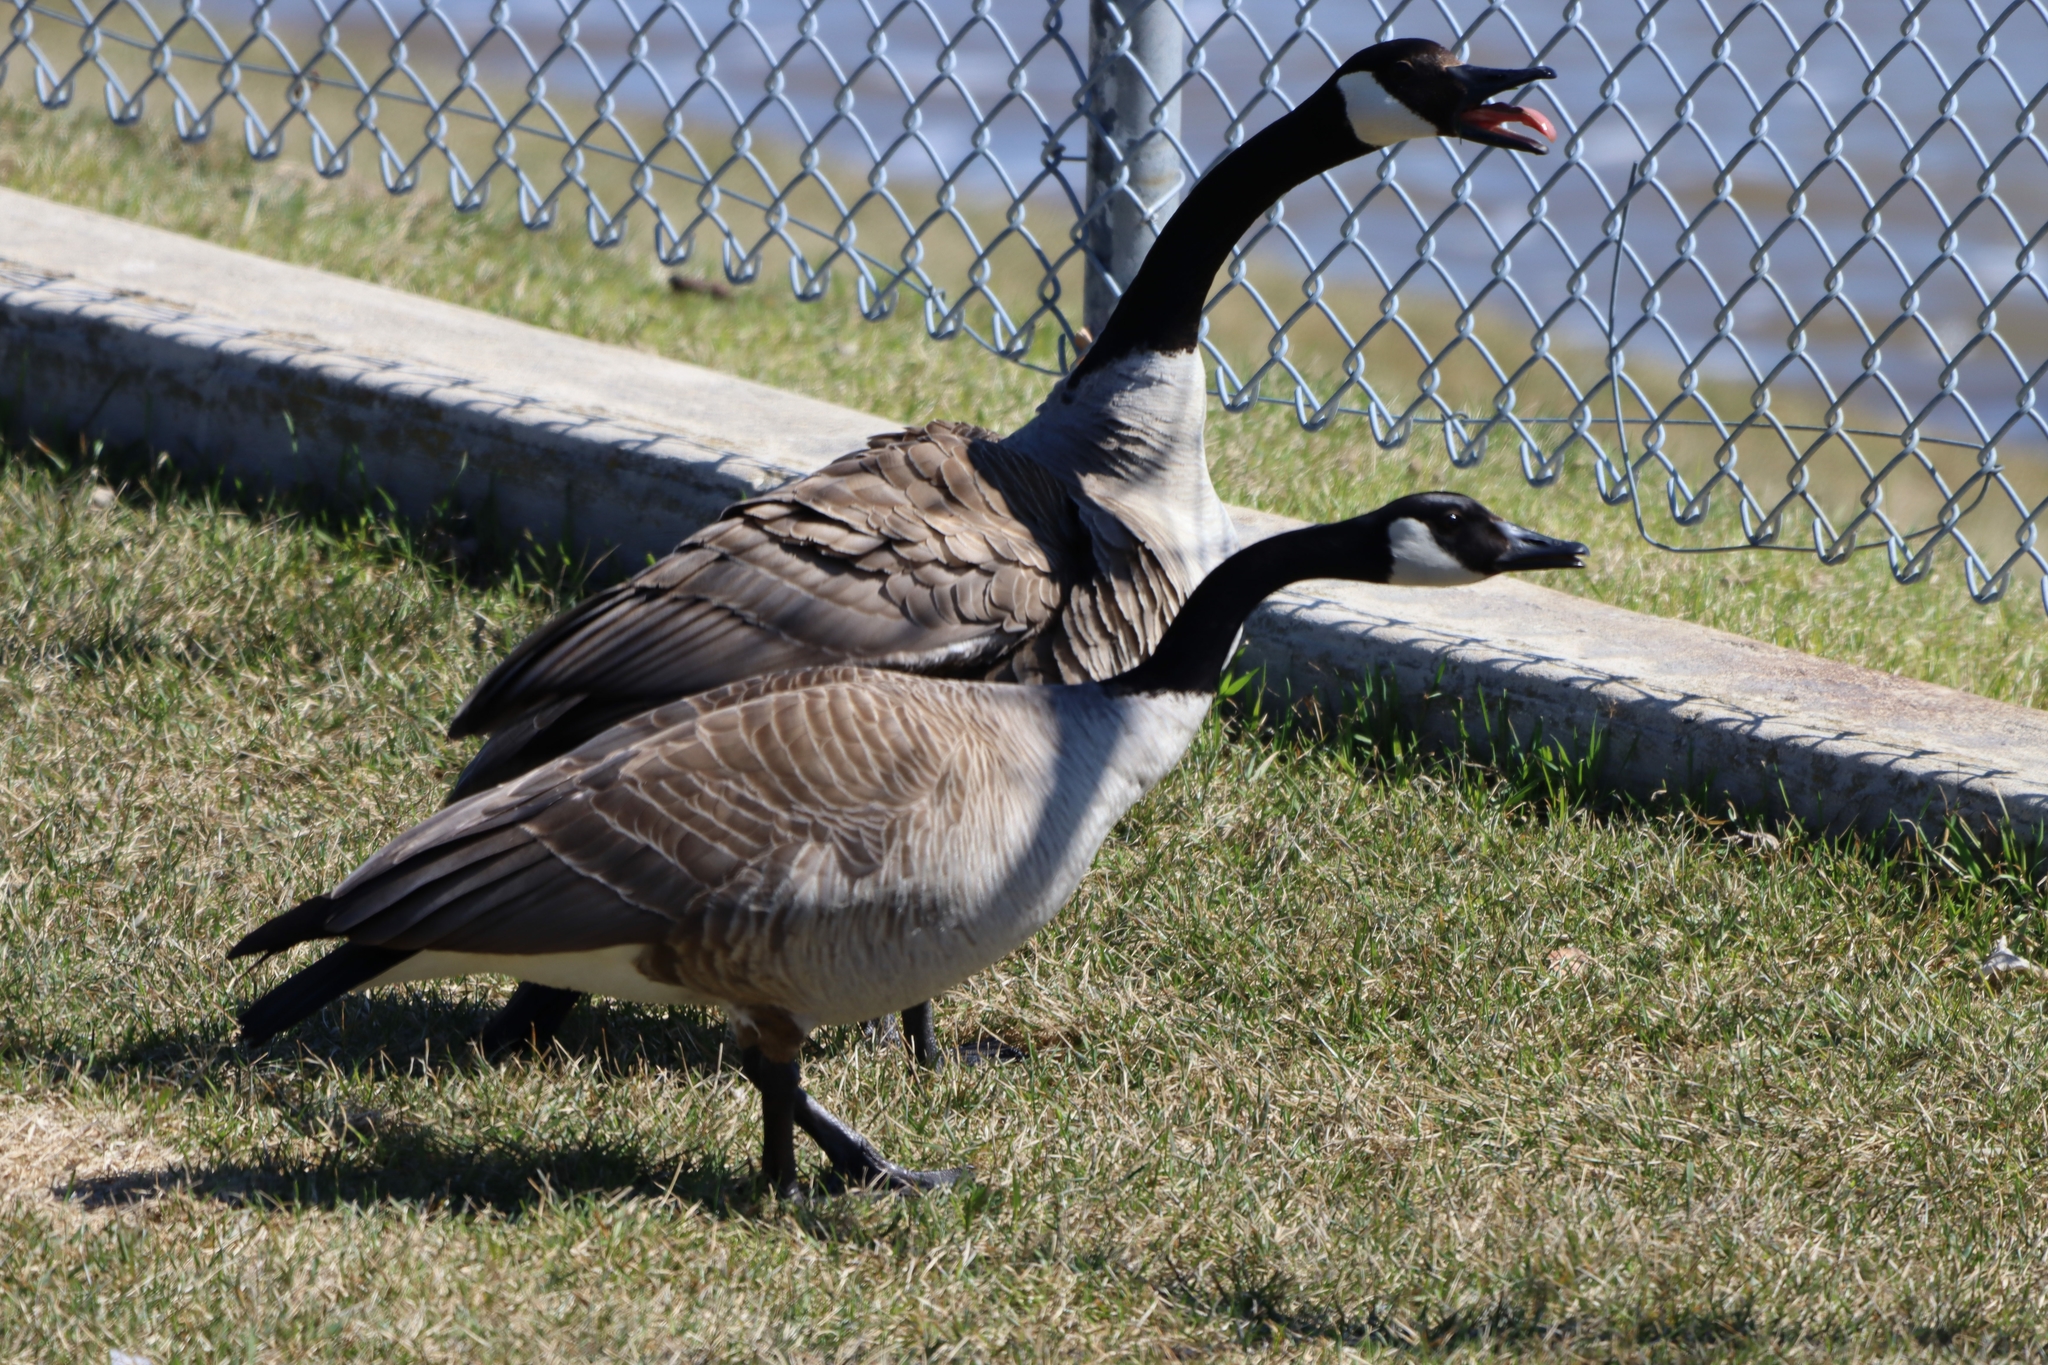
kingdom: Animalia
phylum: Chordata
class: Aves
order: Anseriformes
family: Anatidae
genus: Branta
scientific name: Branta canadensis
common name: Canada goose
